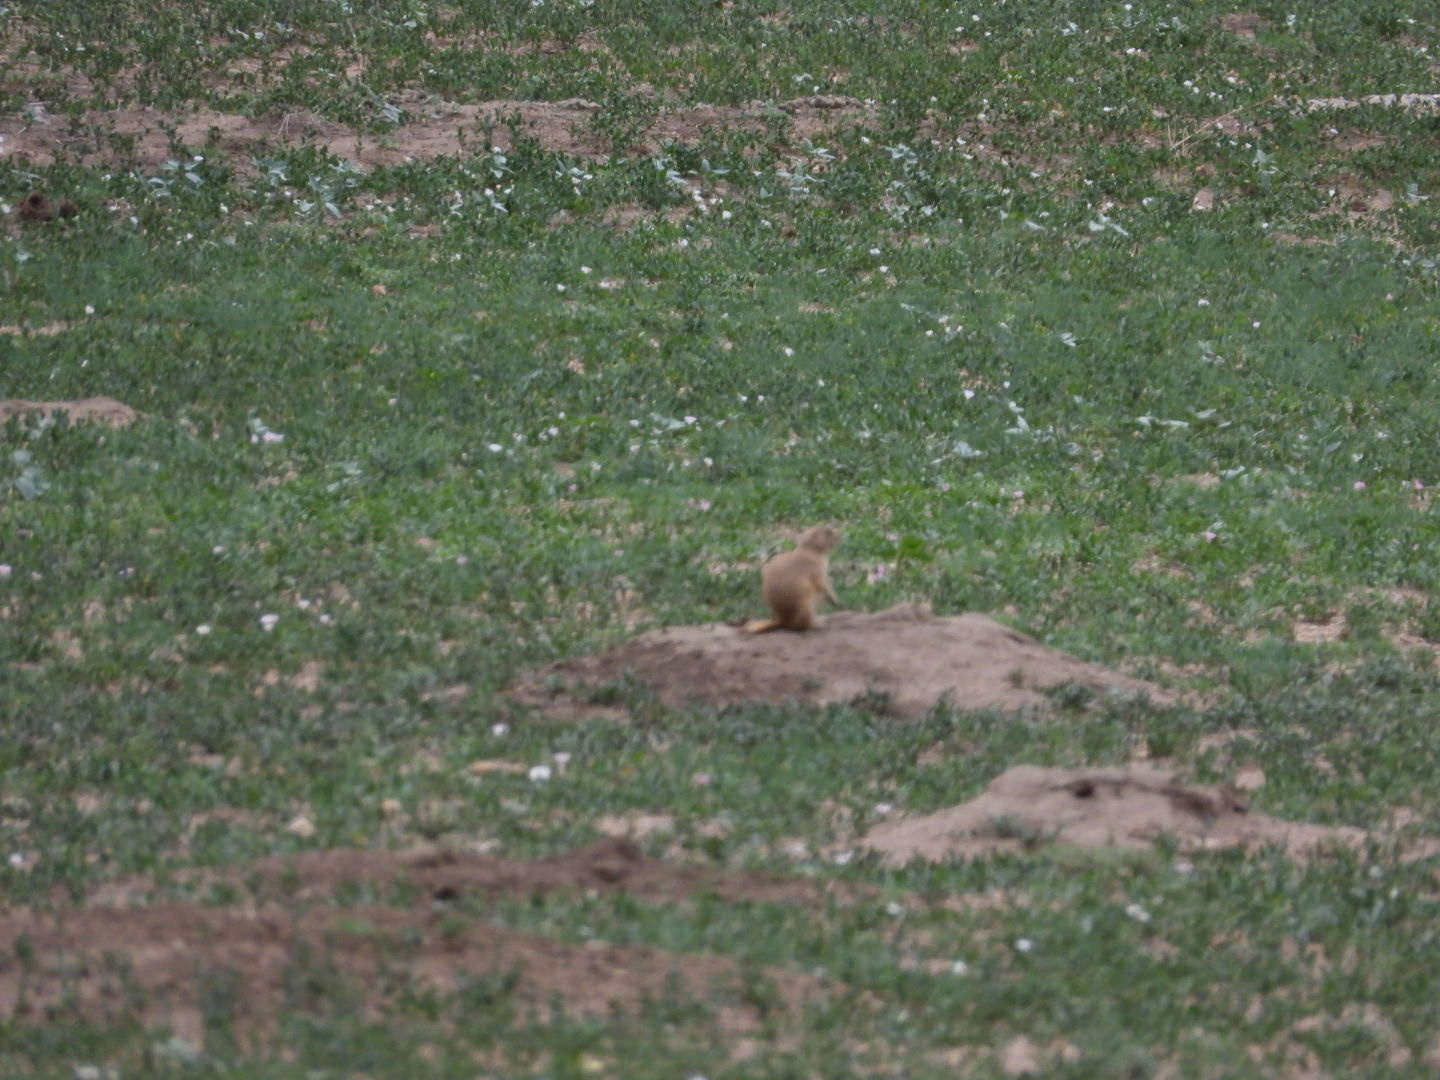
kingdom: Animalia
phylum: Chordata
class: Mammalia
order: Rodentia
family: Sciuridae
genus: Cynomys
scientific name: Cynomys ludovicianus
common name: Black-tailed prairie dog
